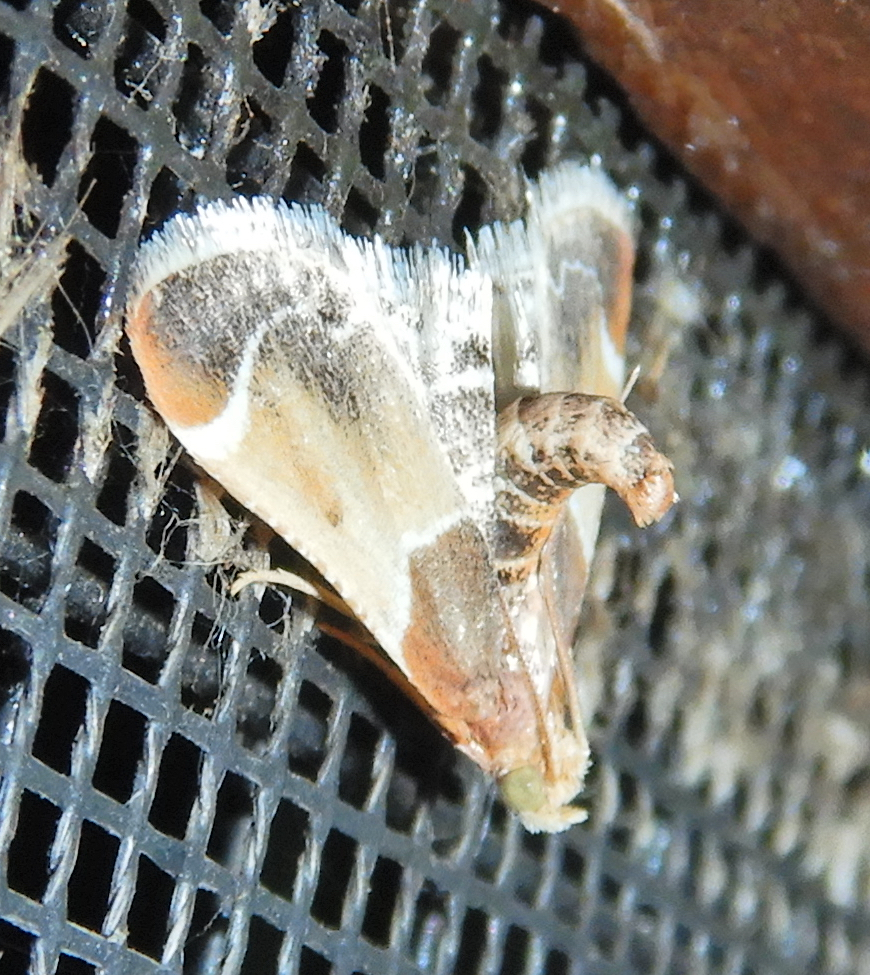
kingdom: Animalia
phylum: Arthropoda
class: Insecta
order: Lepidoptera
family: Pyralidae
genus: Pyralis
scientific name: Pyralis farinalis
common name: Meal moth
